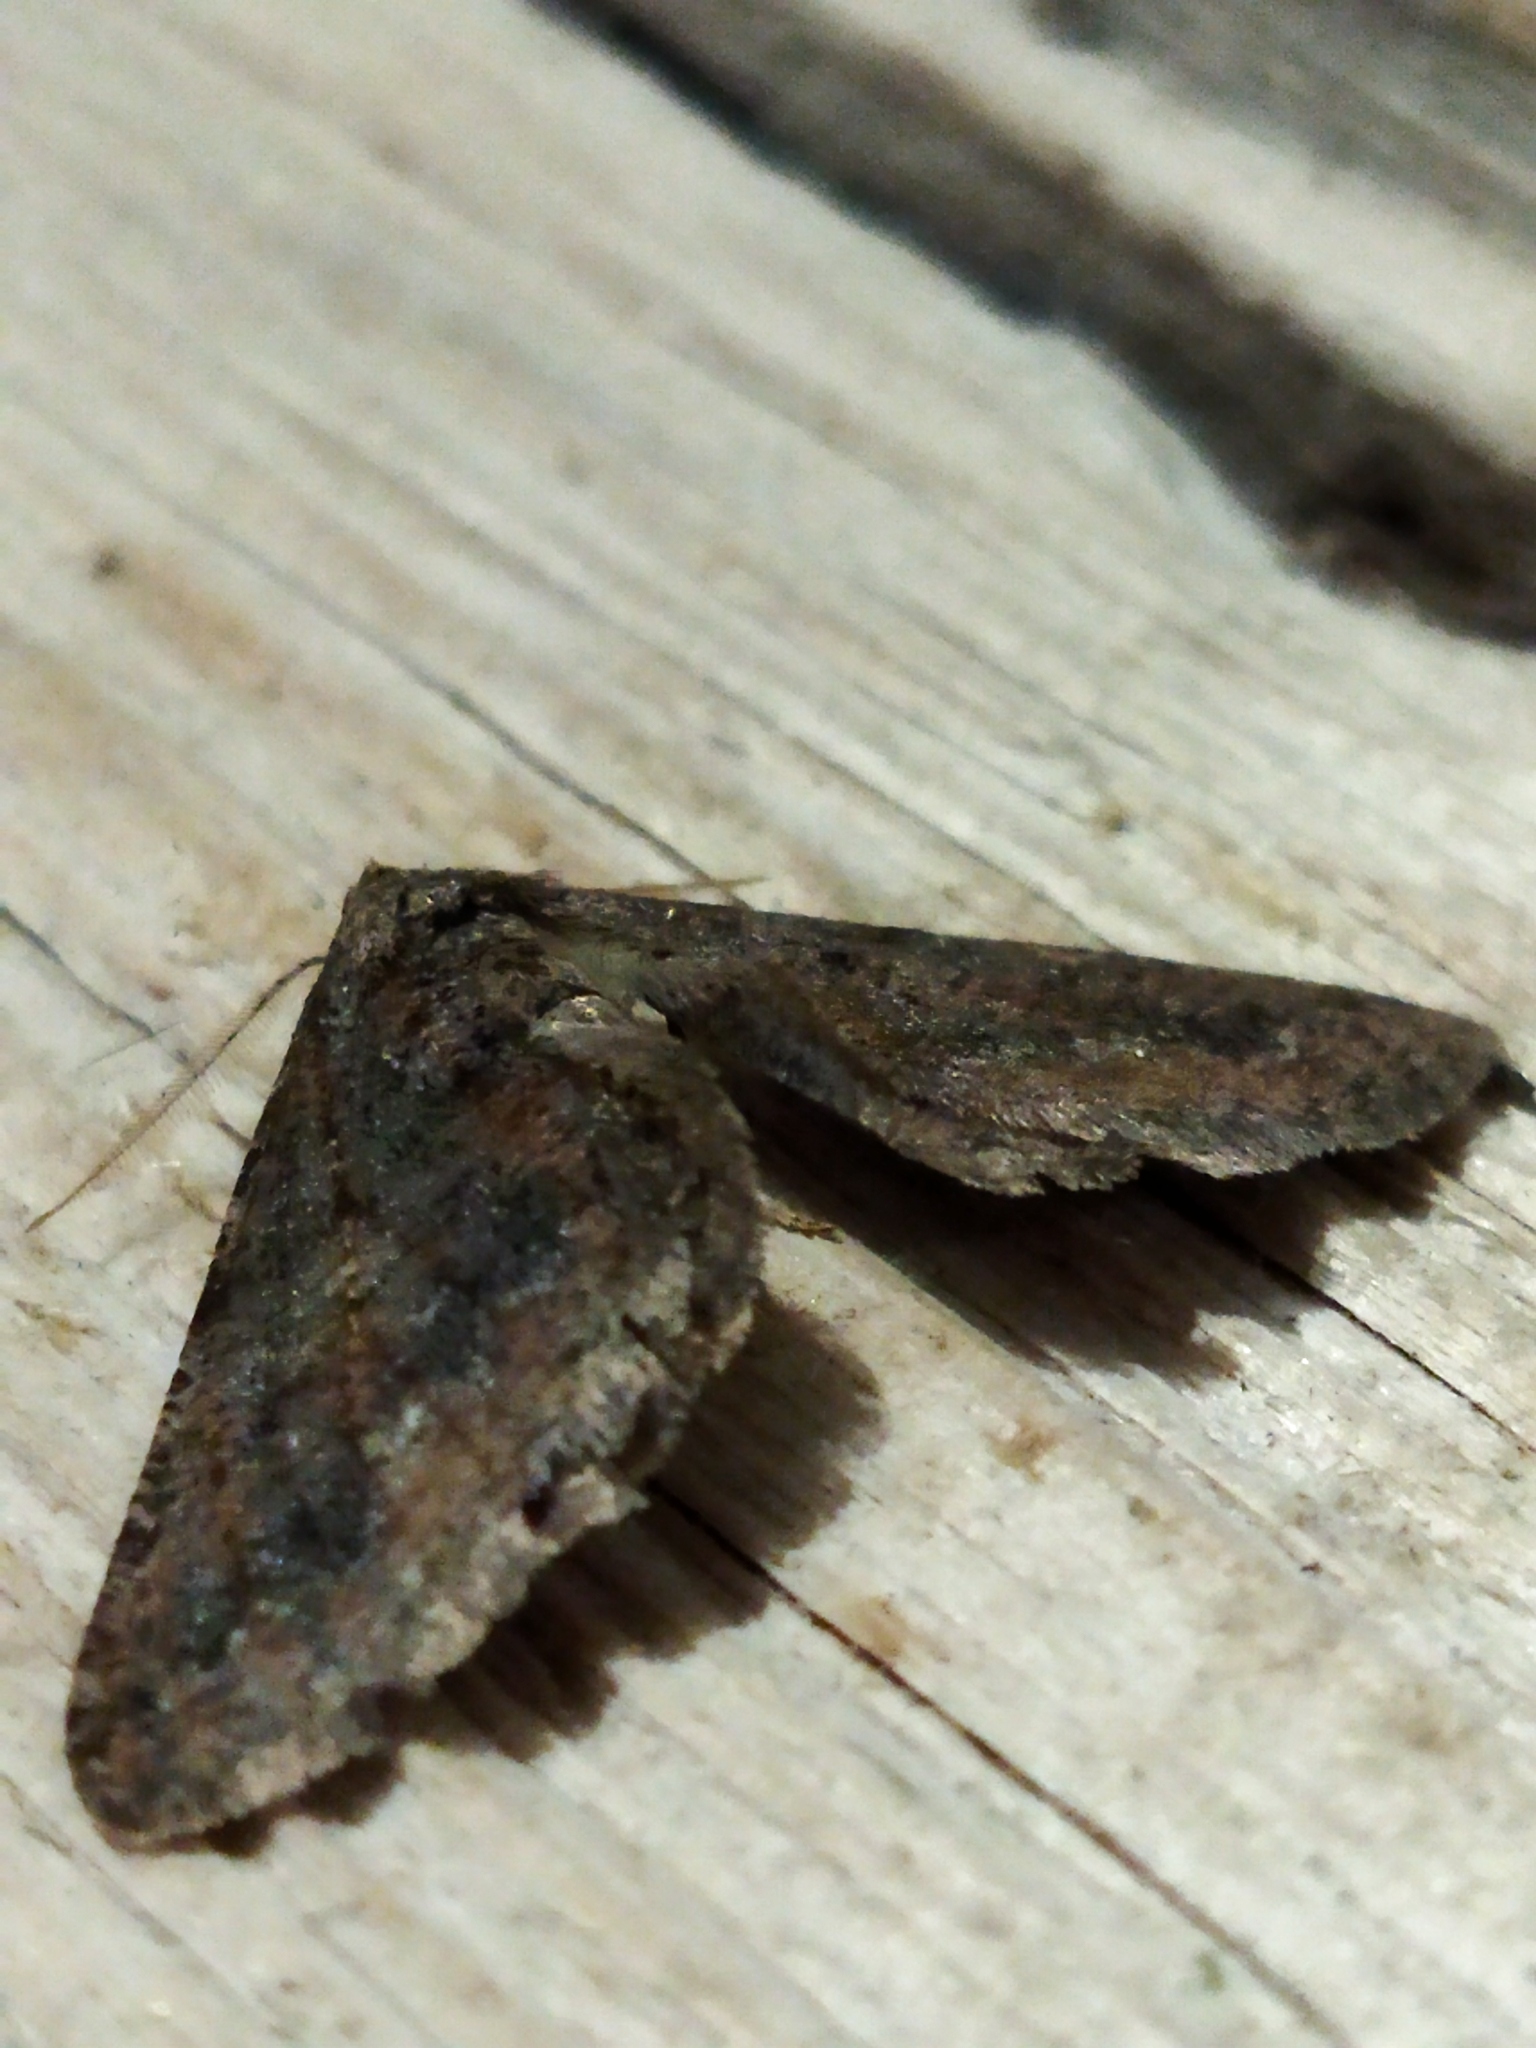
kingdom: Animalia
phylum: Arthropoda
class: Insecta
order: Lepidoptera
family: Geometridae
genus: Agriopis
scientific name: Agriopis bajaria
